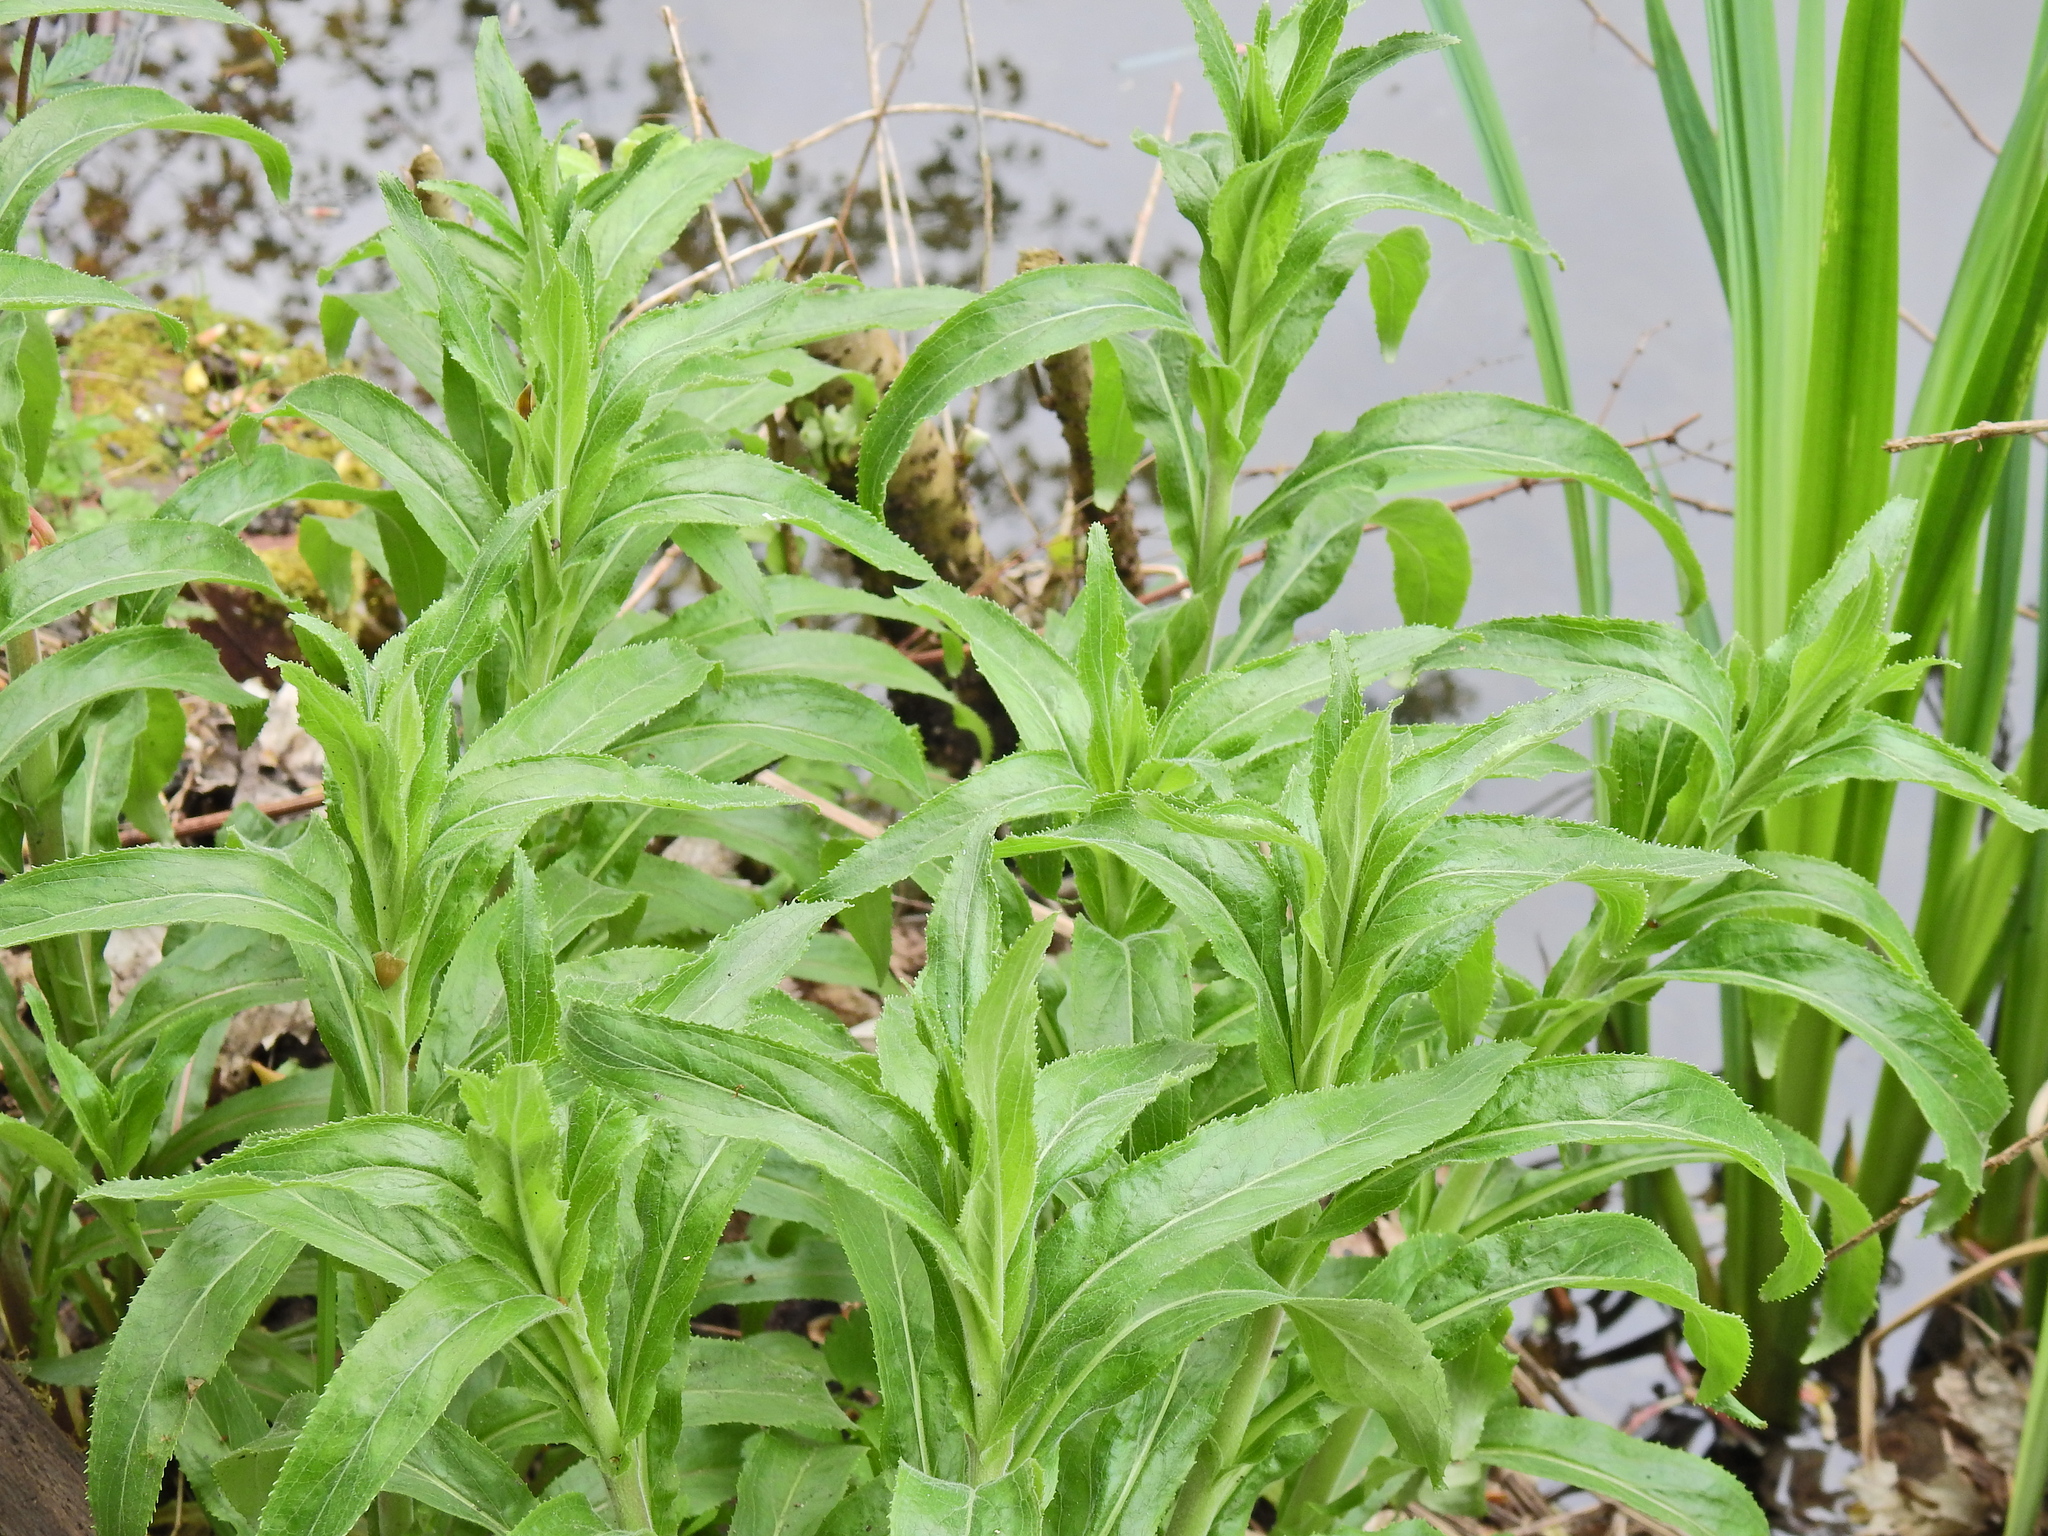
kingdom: Plantae
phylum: Tracheophyta
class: Magnoliopsida
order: Myrtales
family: Onagraceae
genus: Epilobium
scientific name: Epilobium hirsutum
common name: Great willowherb
